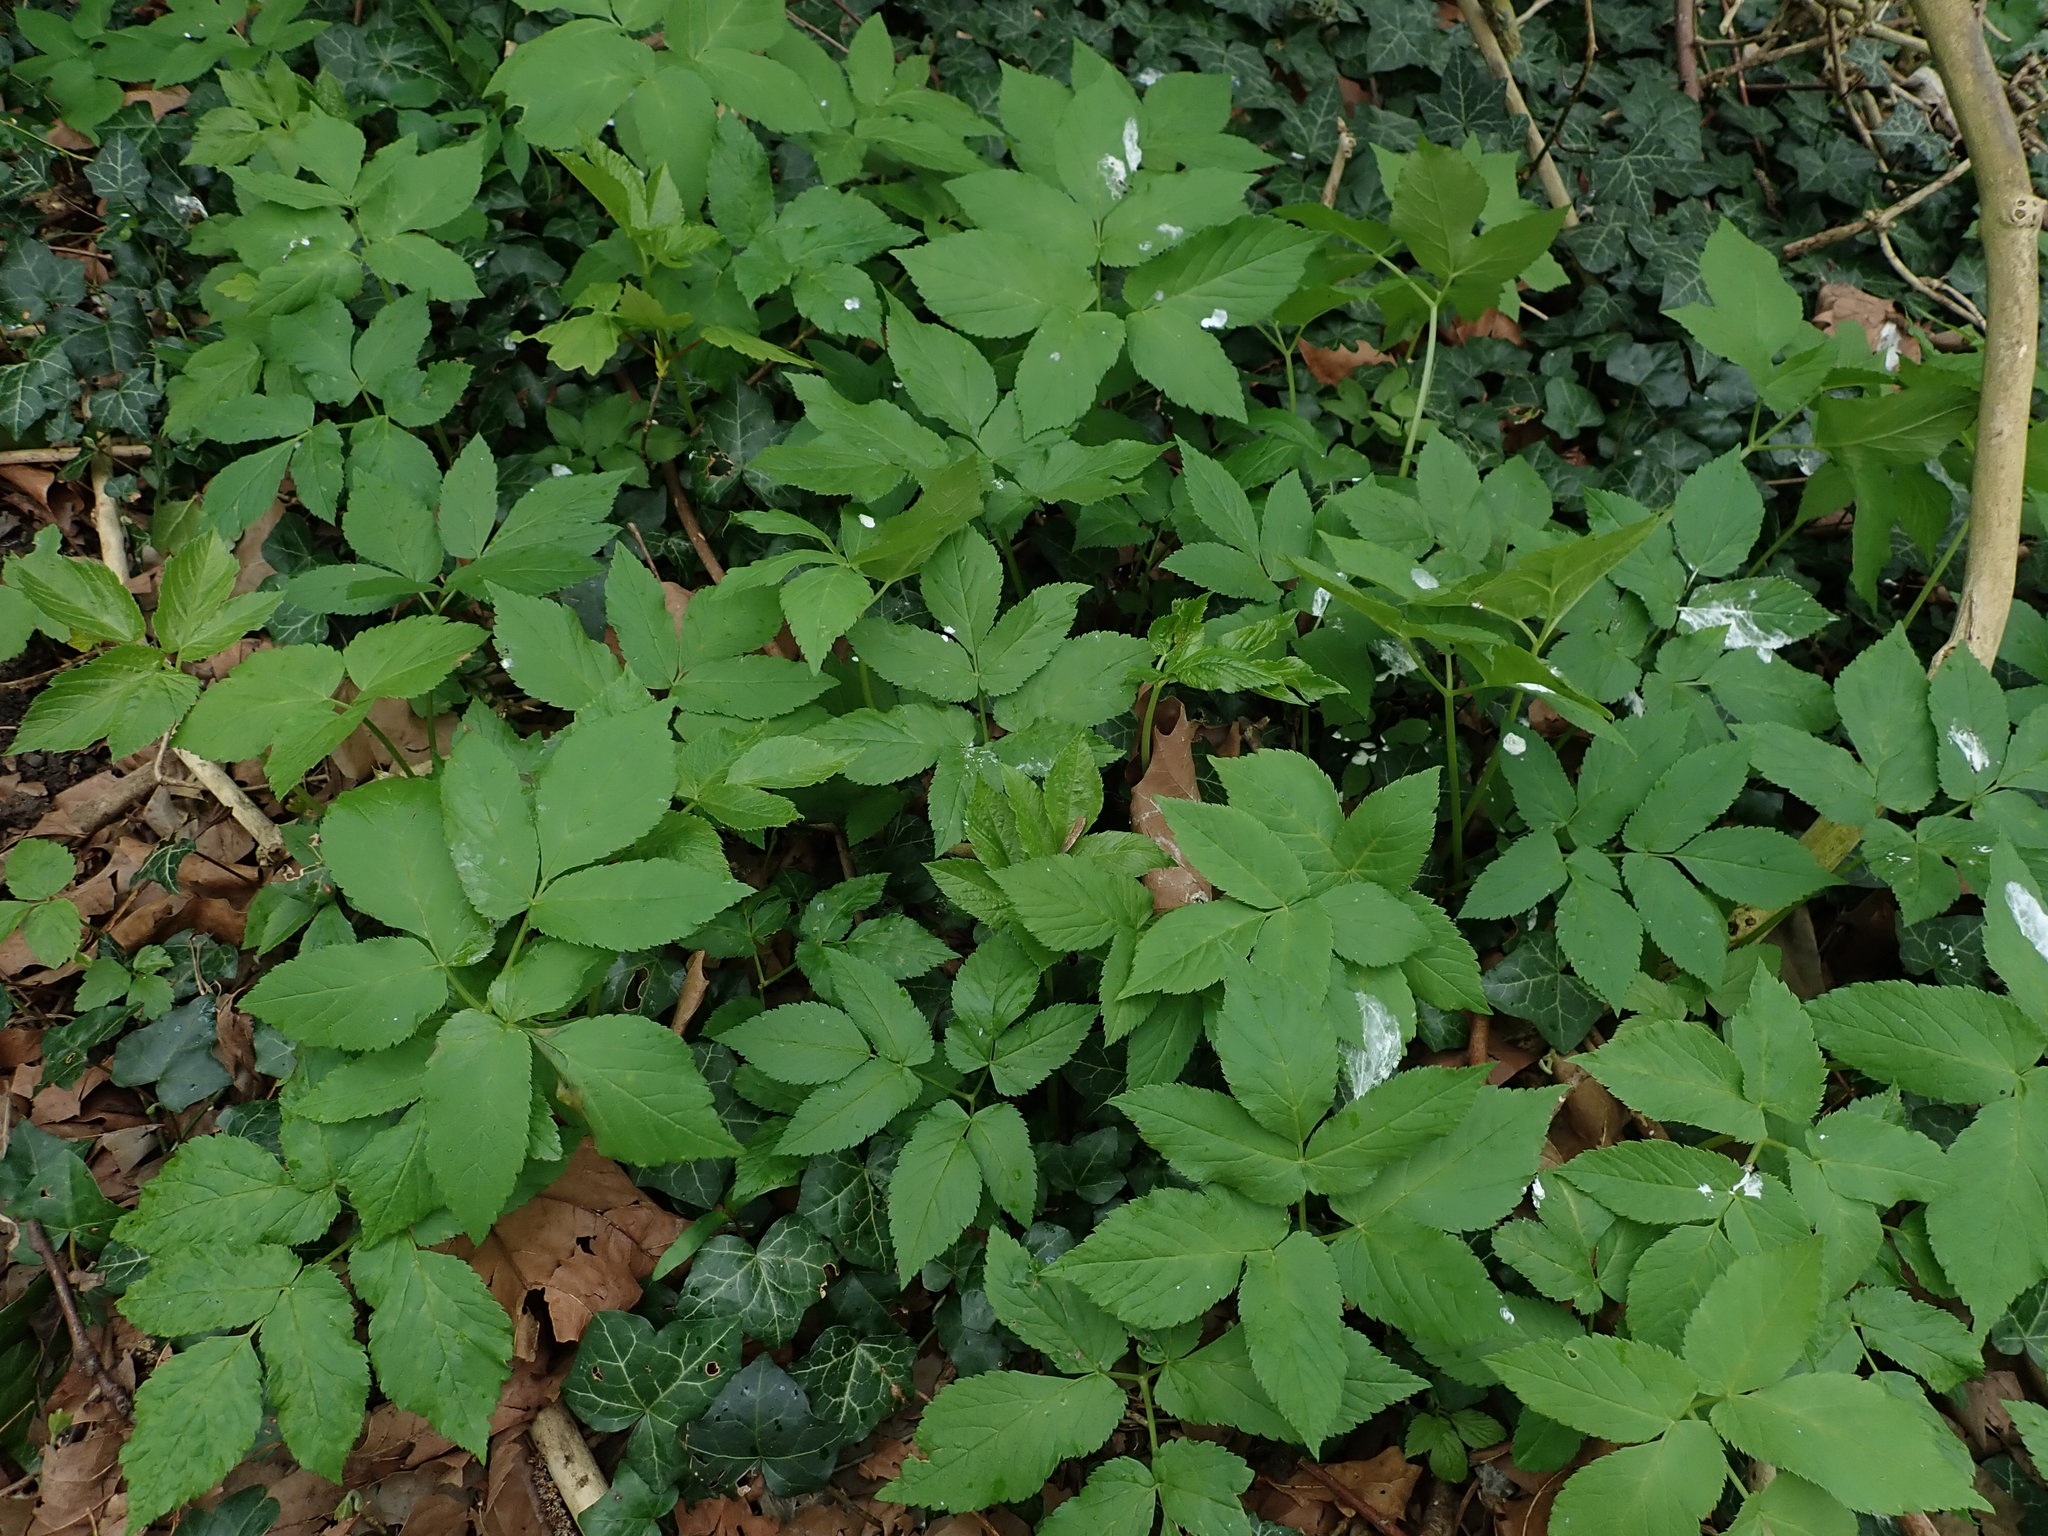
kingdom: Plantae
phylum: Tracheophyta
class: Magnoliopsida
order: Apiales
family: Apiaceae
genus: Aegopodium
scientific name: Aegopodium podagraria
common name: Ground-elder
